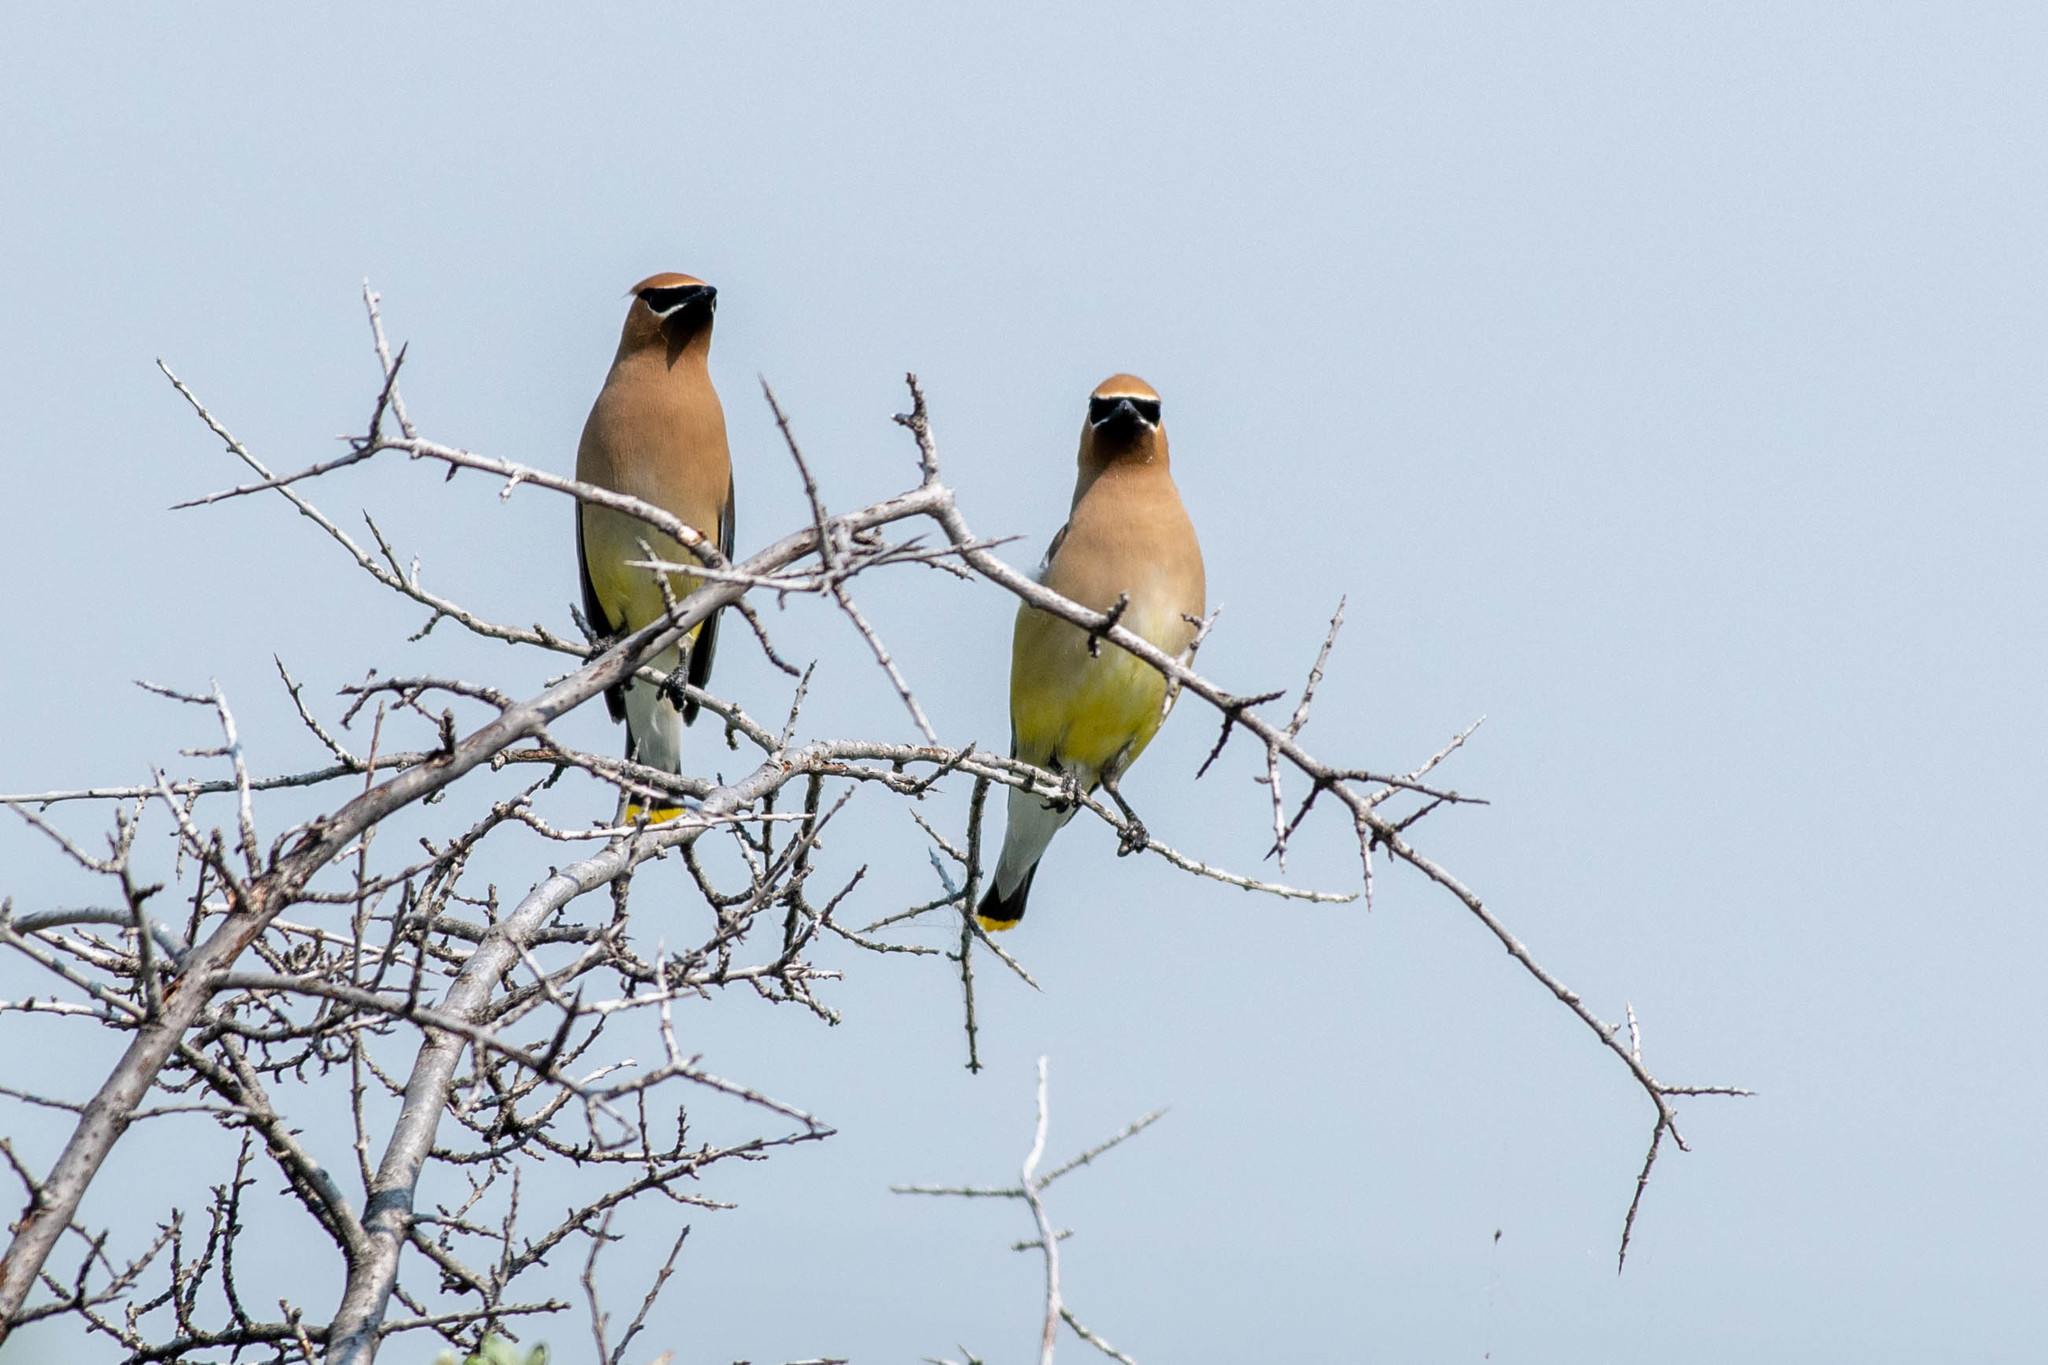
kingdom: Animalia
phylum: Chordata
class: Aves
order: Passeriformes
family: Bombycillidae
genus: Bombycilla
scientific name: Bombycilla cedrorum
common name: Cedar waxwing
